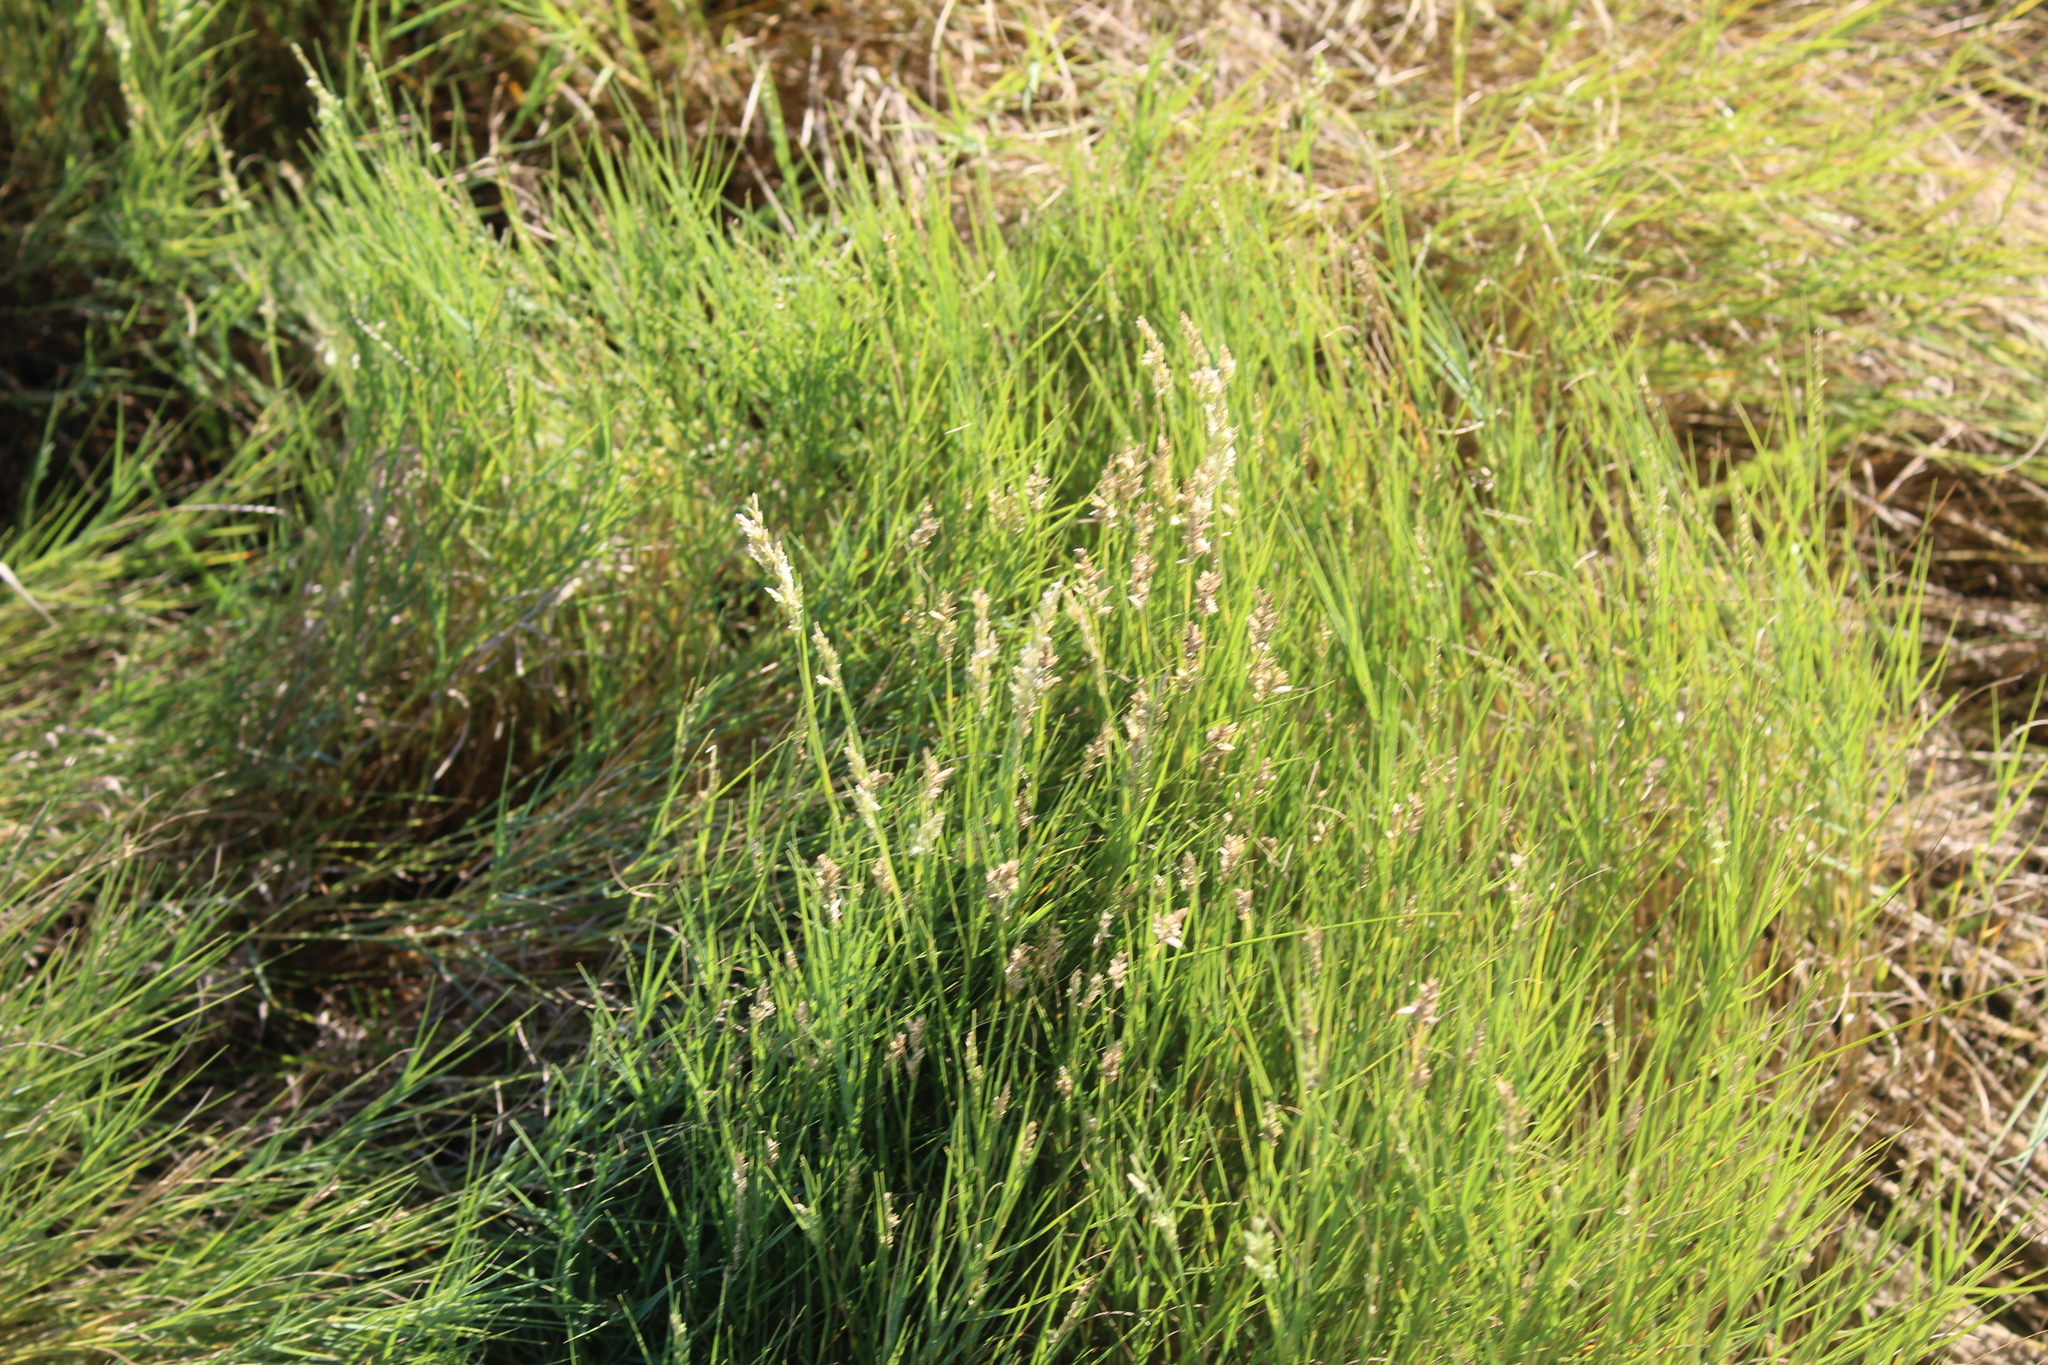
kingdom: Plantae
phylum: Tracheophyta
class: Liliopsida
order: Poales
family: Poaceae
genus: Distichlis
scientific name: Distichlis spicata
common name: Saltgrass
